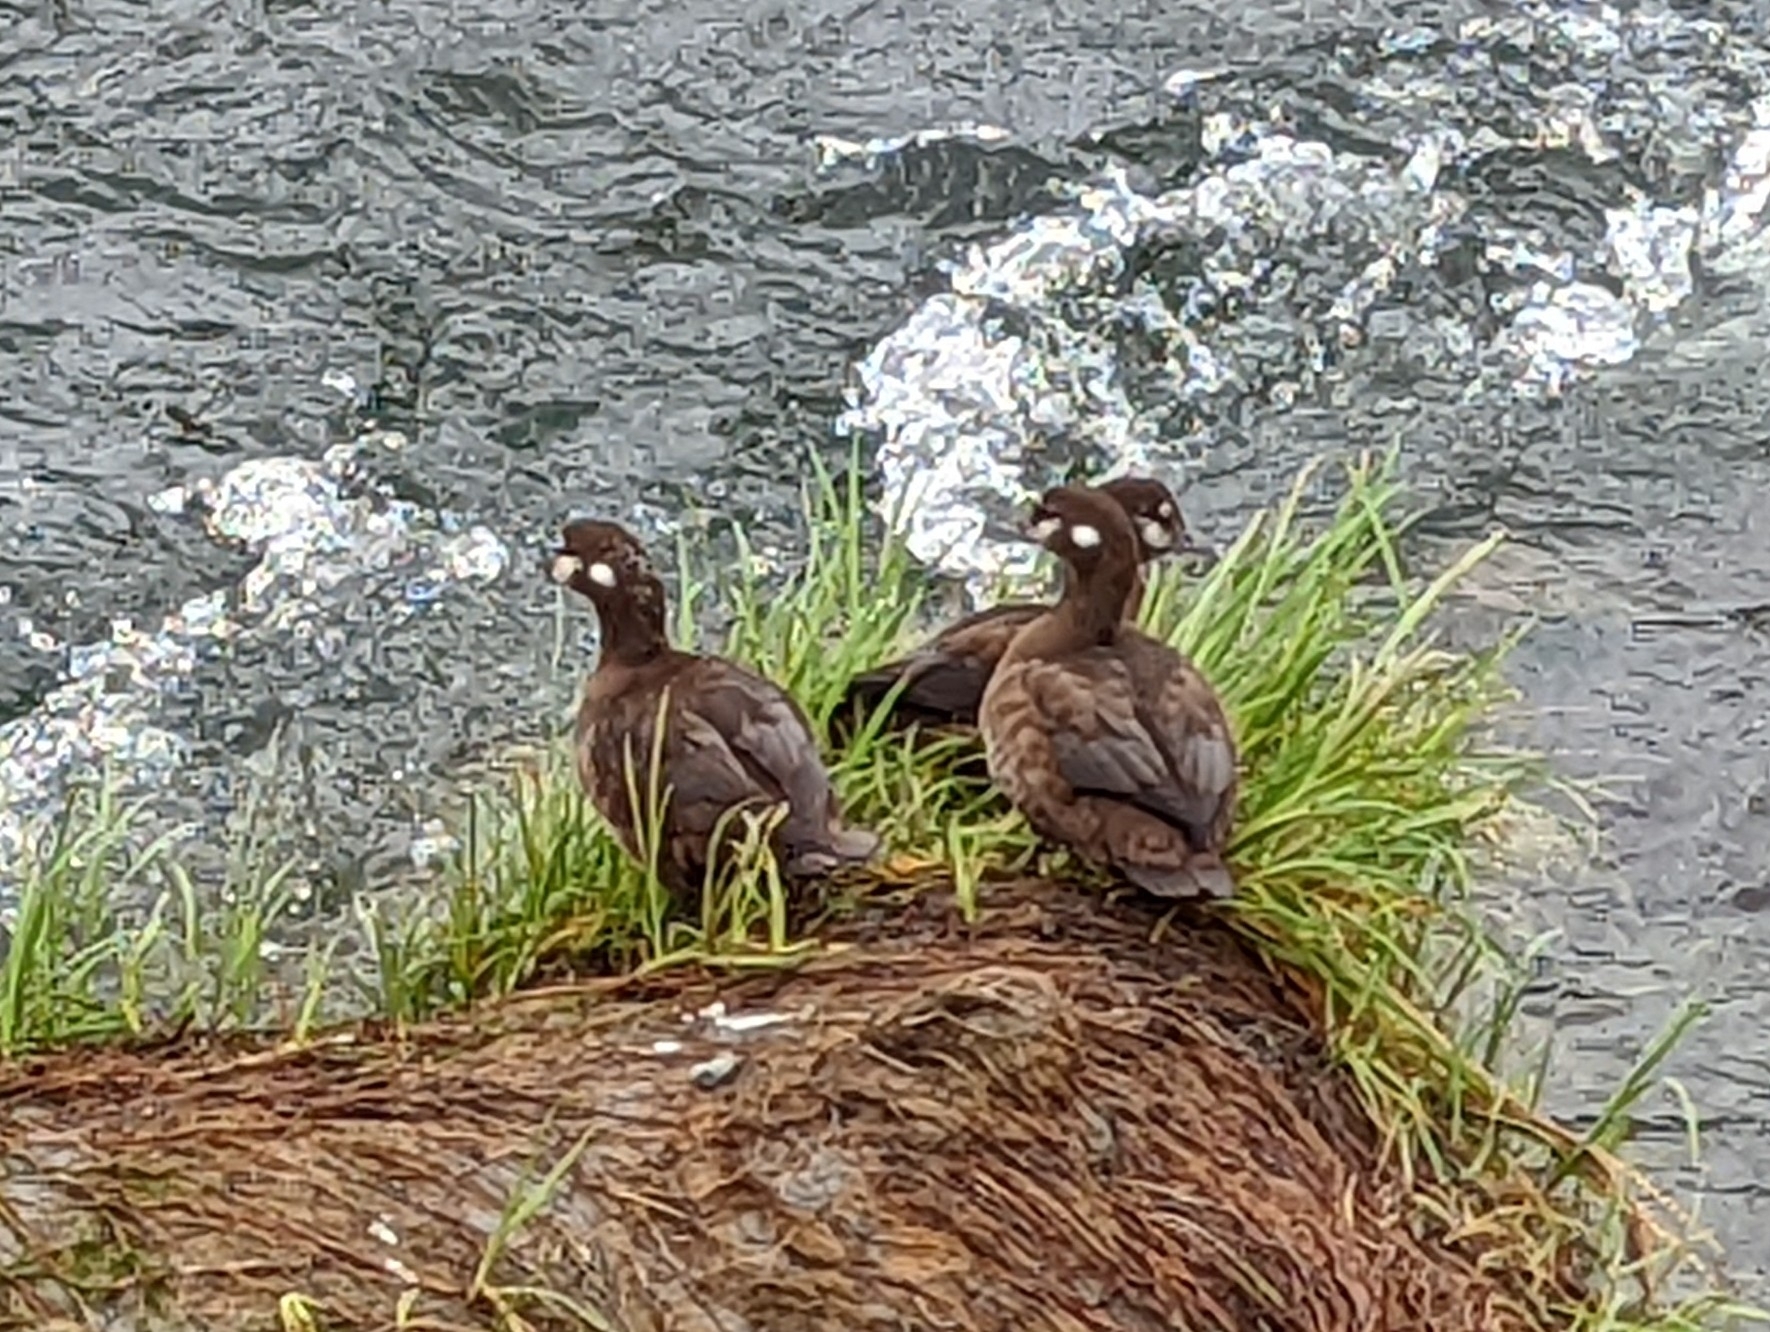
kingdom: Animalia
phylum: Chordata
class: Aves
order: Anseriformes
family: Anatidae
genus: Histrionicus
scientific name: Histrionicus histrionicus
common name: Harlequin duck
